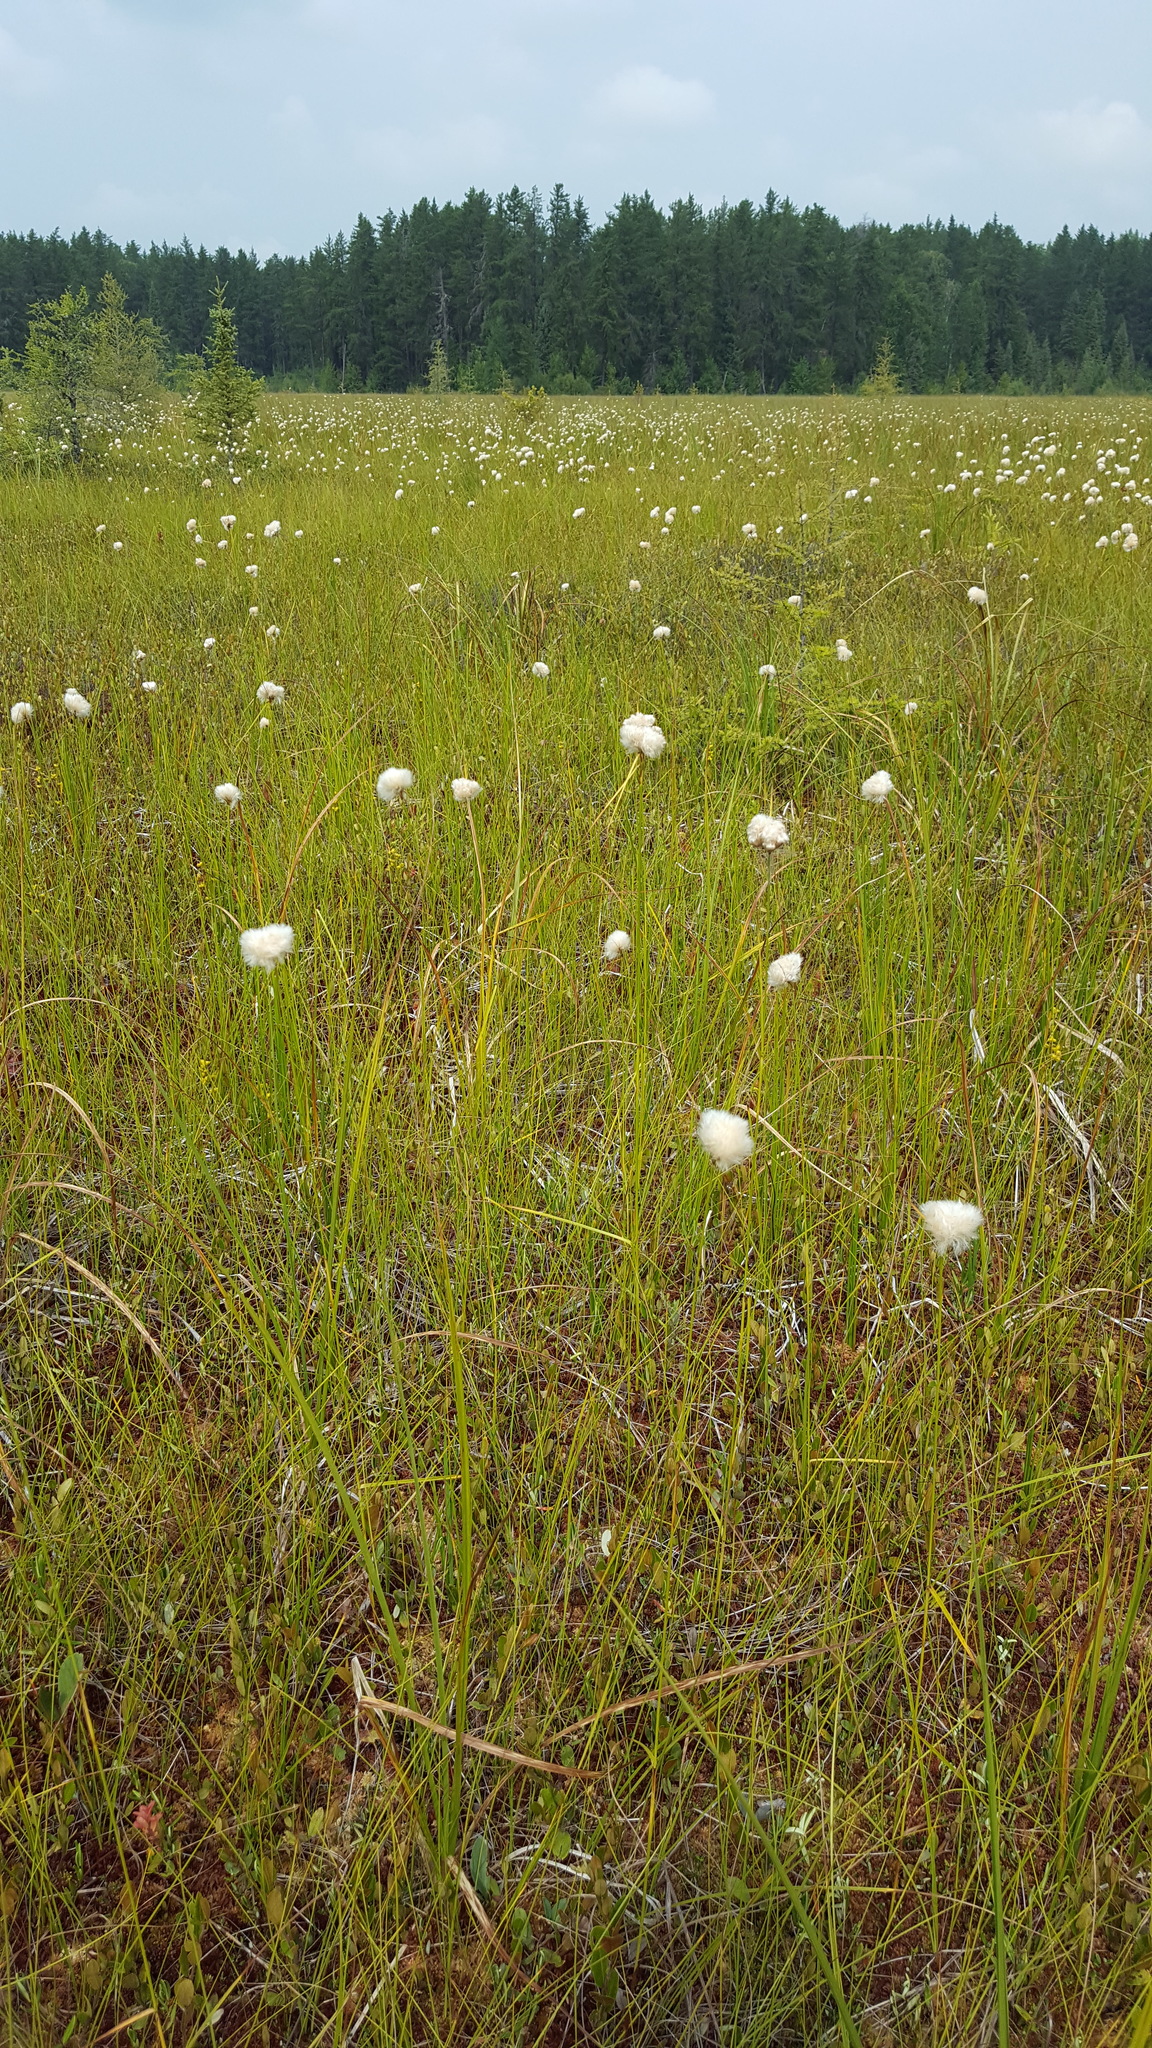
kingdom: Plantae
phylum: Tracheophyta
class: Liliopsida
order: Poales
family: Cyperaceae
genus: Eriophorum
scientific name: Eriophorum virginicum
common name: Tawny cottongrass
